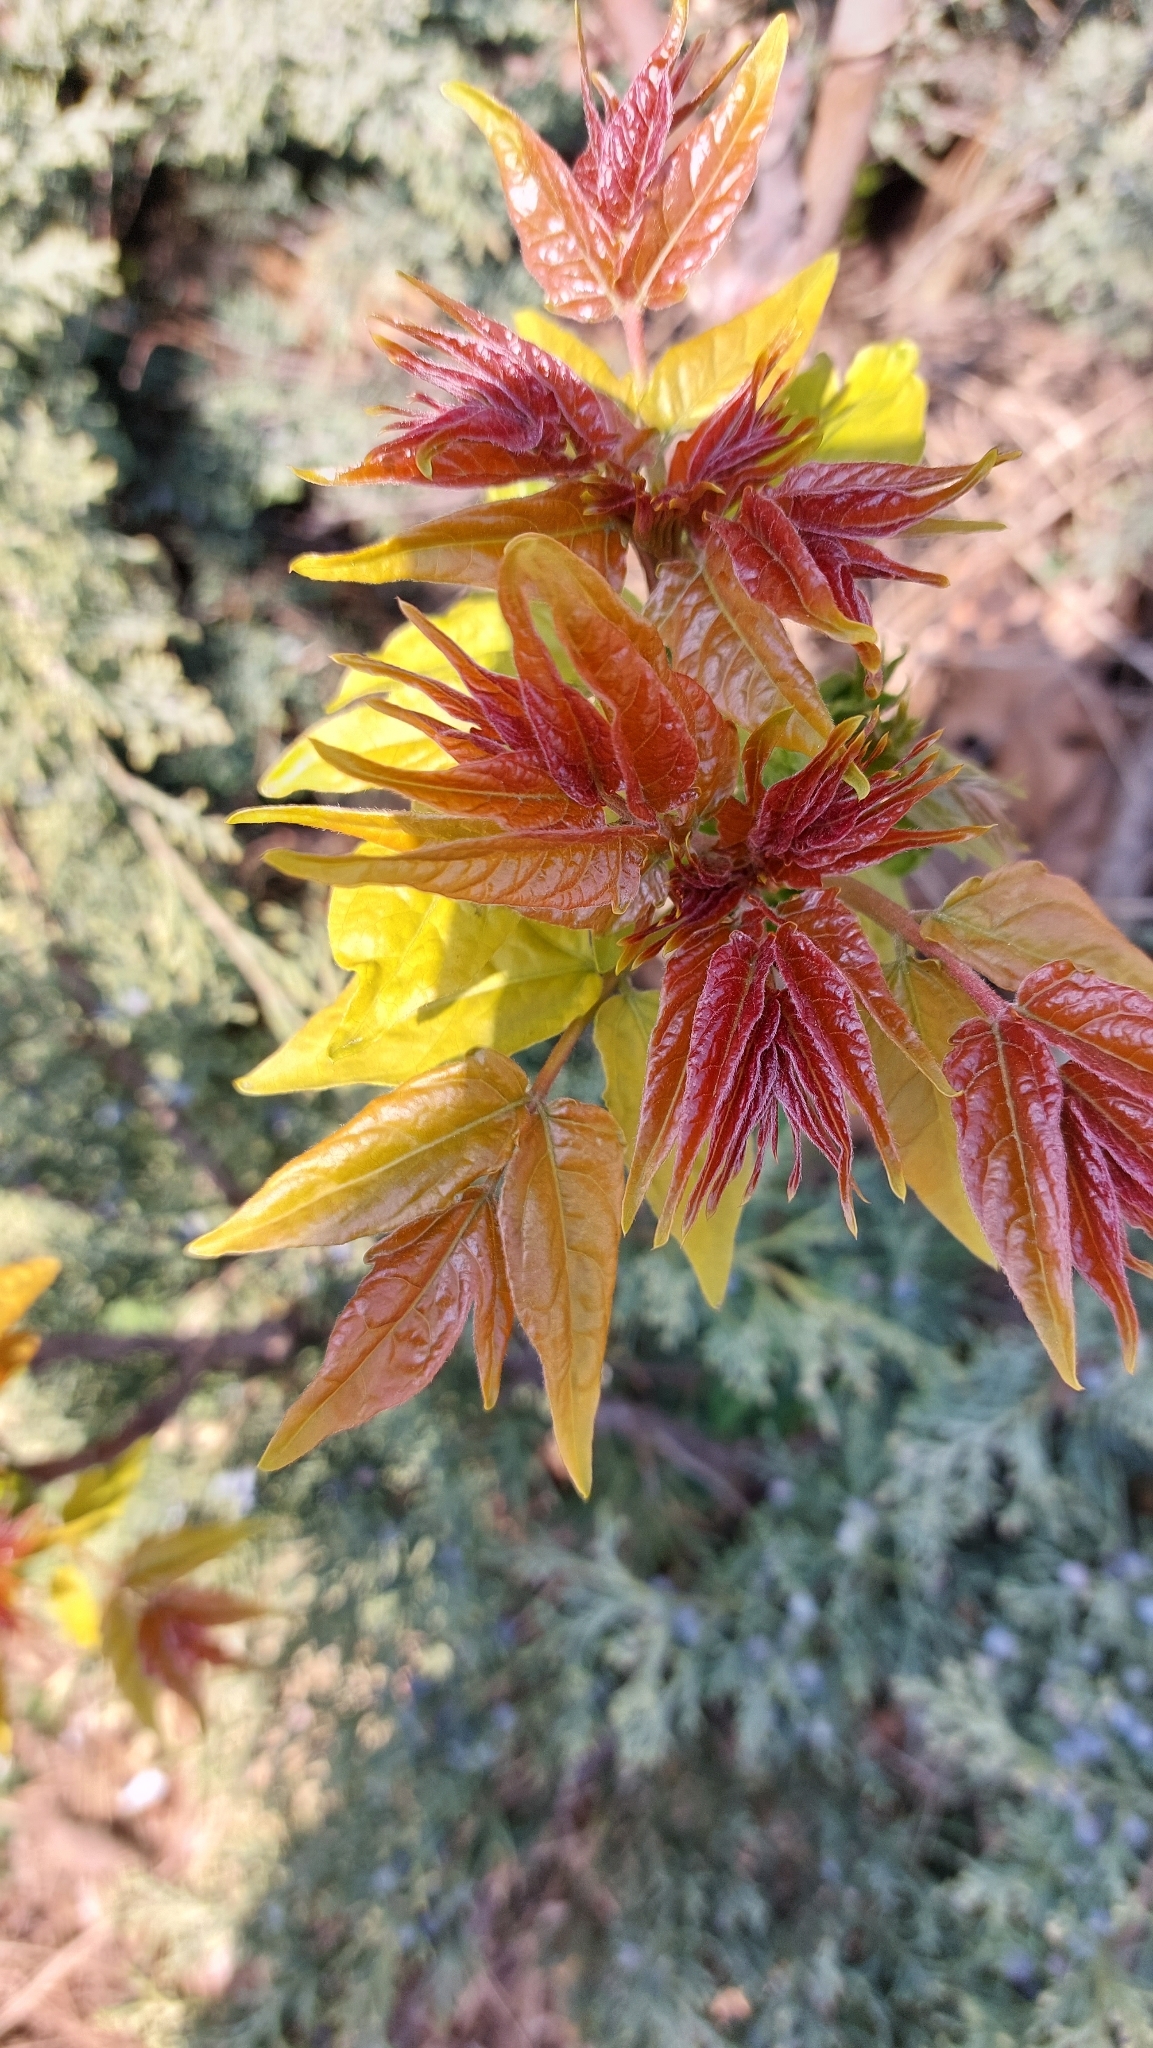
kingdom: Plantae
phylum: Tracheophyta
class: Magnoliopsida
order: Sapindales
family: Simaroubaceae
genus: Ailanthus
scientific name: Ailanthus altissima
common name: Tree-of-heaven
